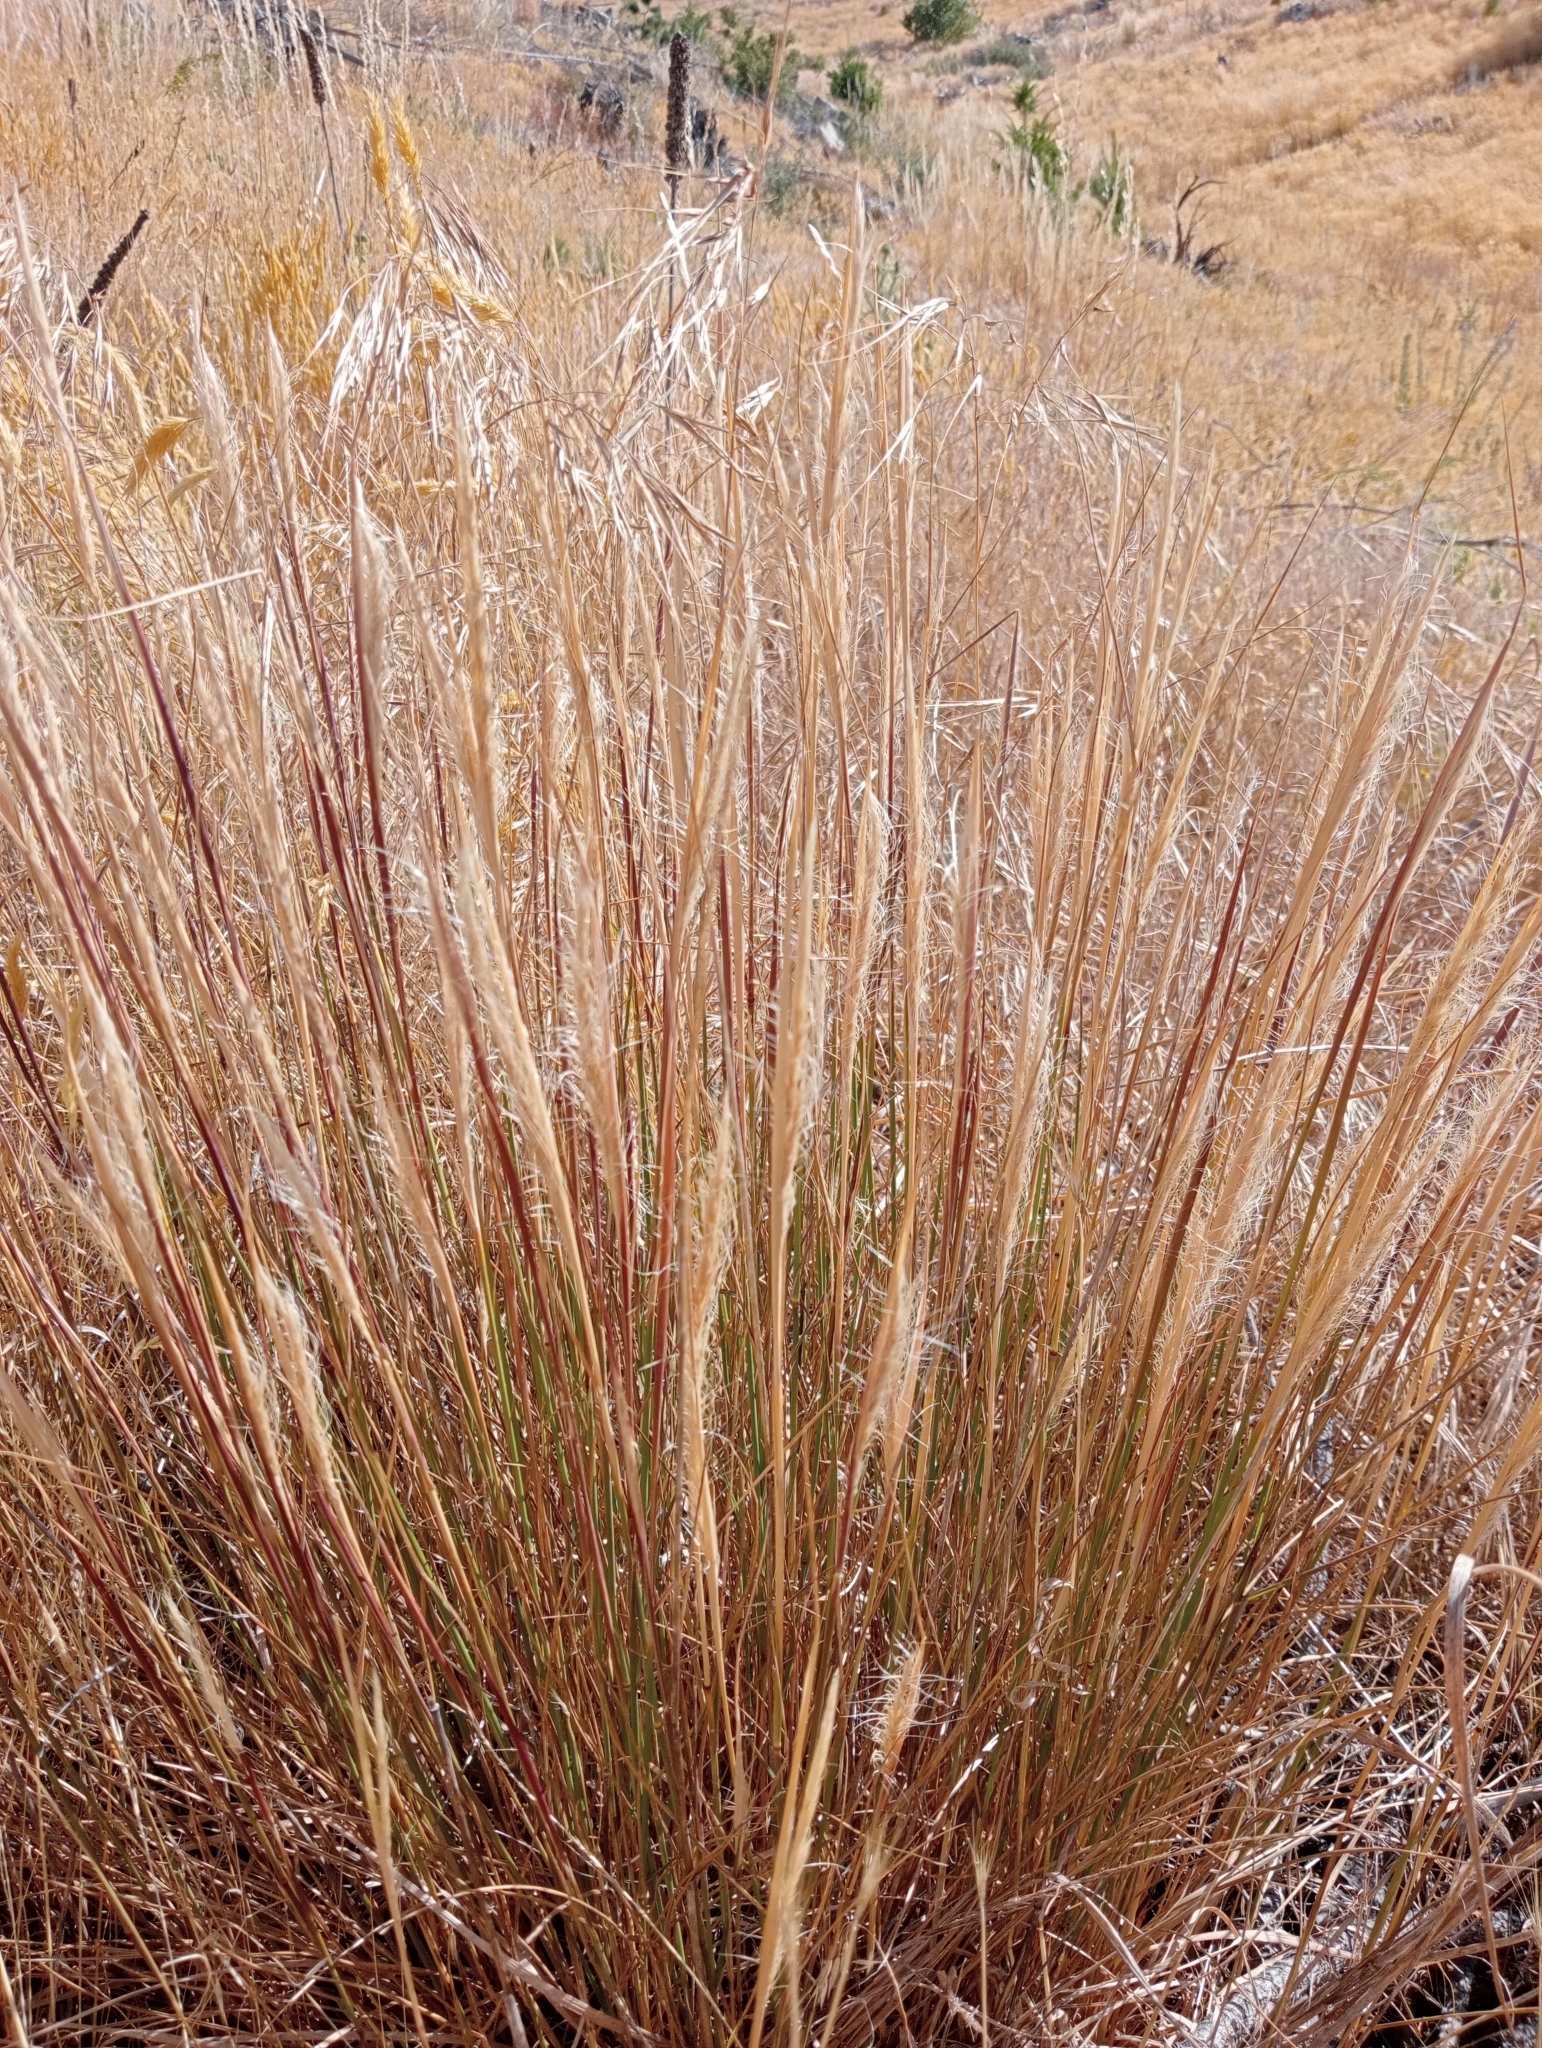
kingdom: Plantae
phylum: Tracheophyta
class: Liliopsida
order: Poales
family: Poaceae
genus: Dichelachne
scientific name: Dichelachne crinita
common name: Clovenfoot plumegrass
